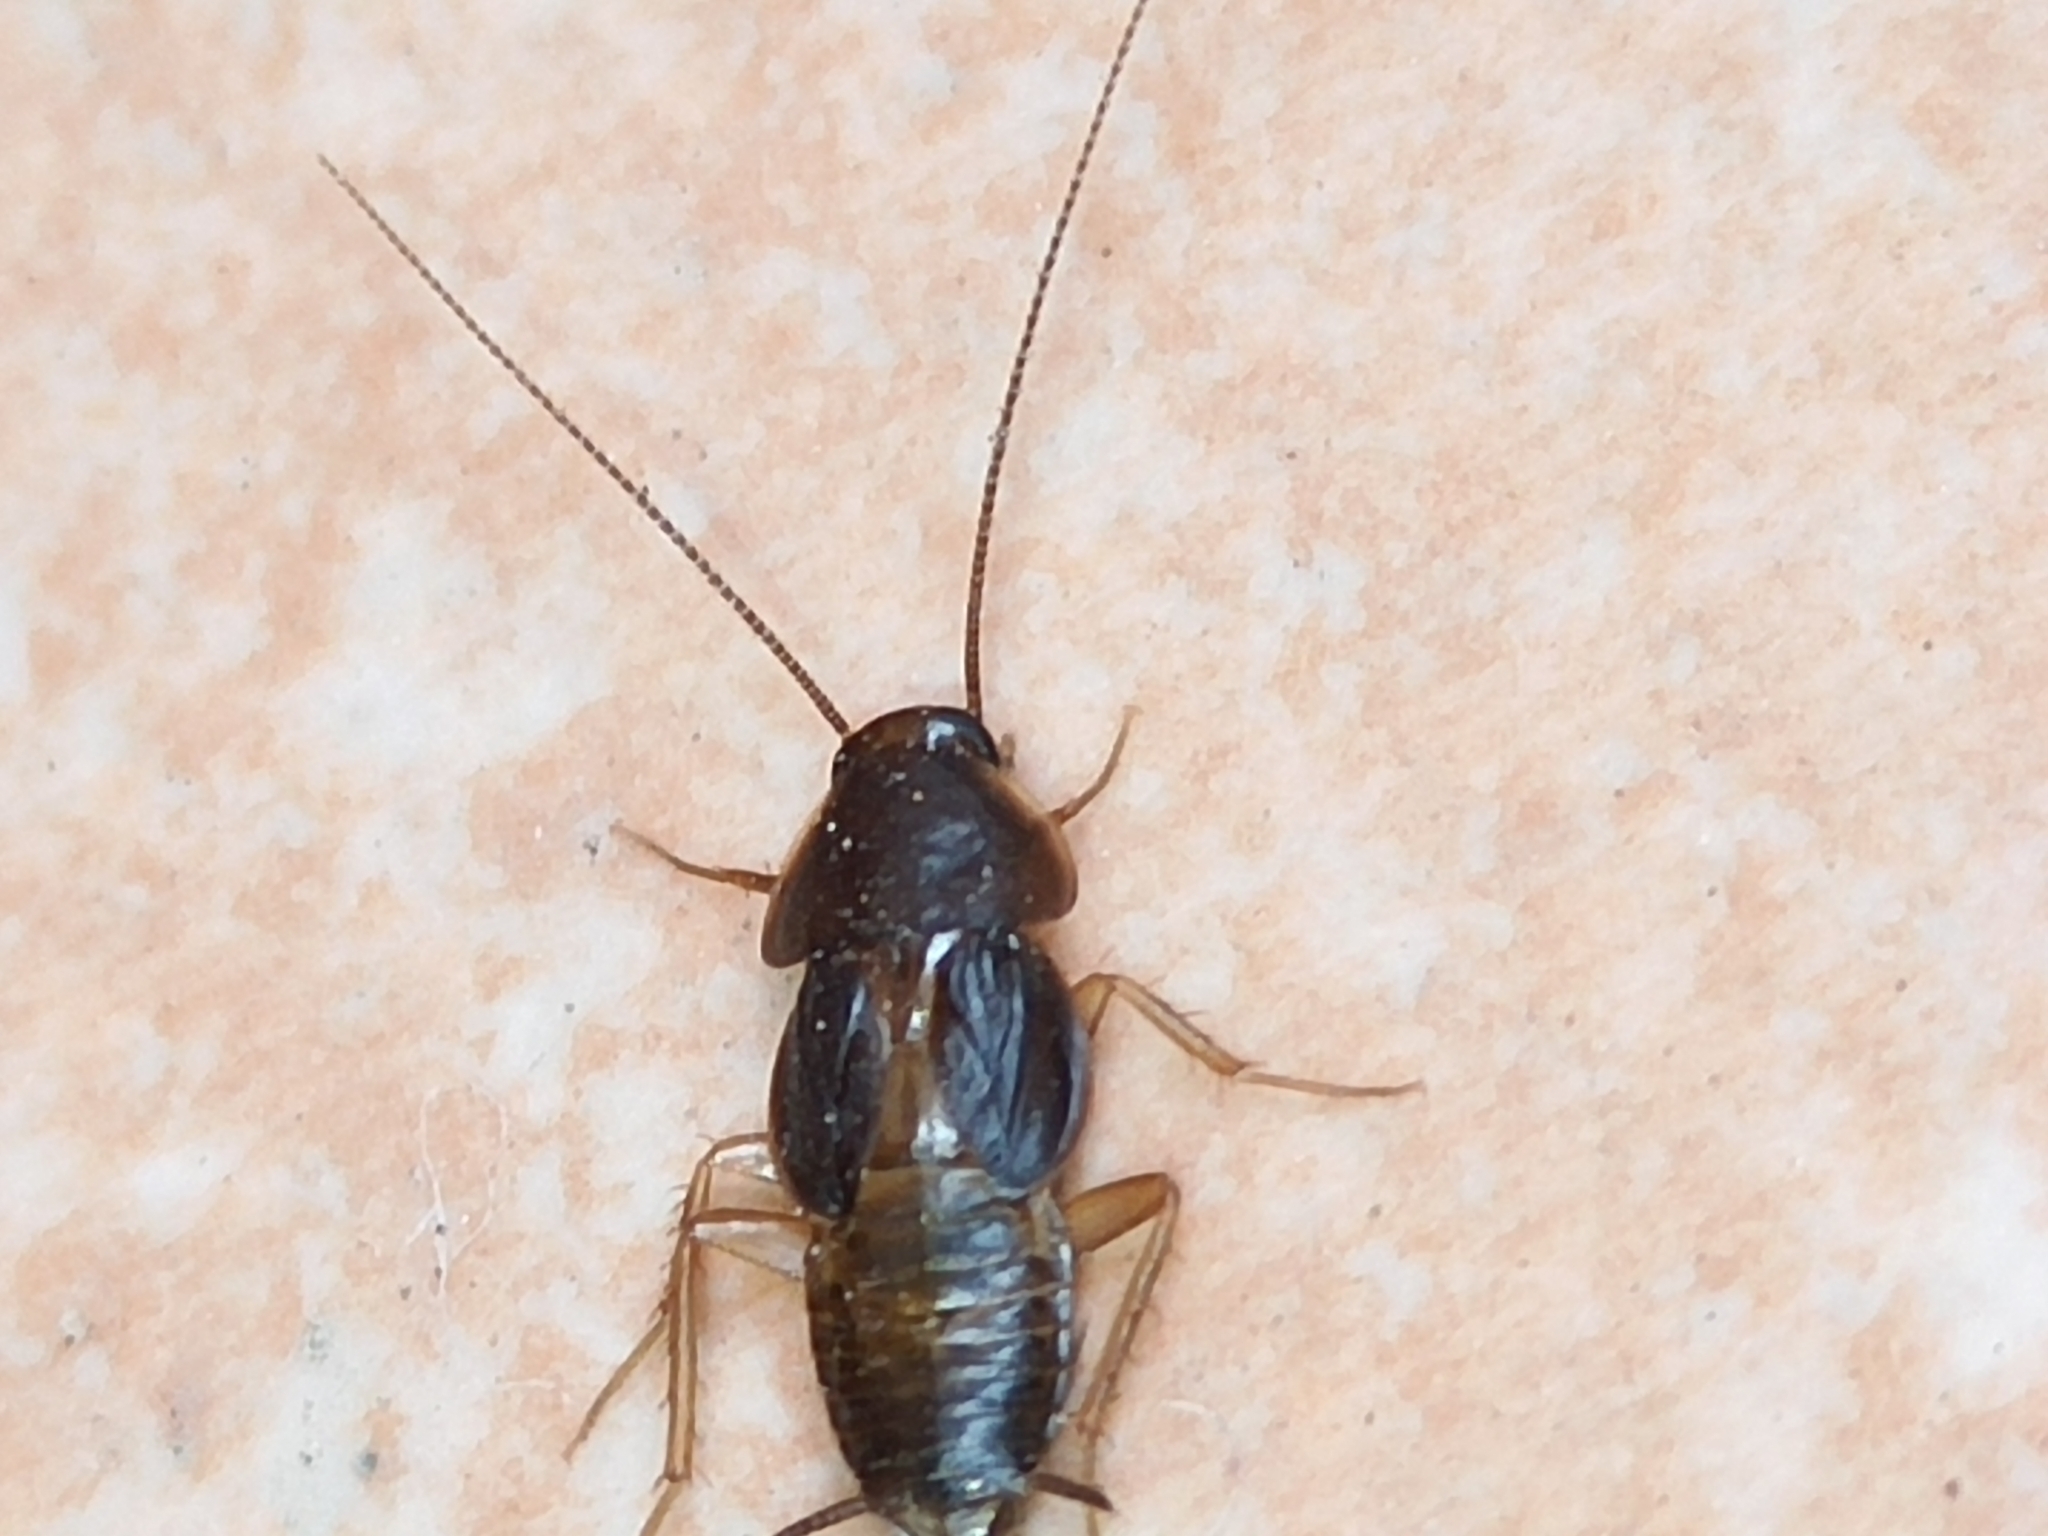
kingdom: Animalia
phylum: Arthropoda
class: Insecta
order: Blattodea
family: Corydiidae
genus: Myrmecoblatta
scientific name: Myrmecoblatta hebardi
